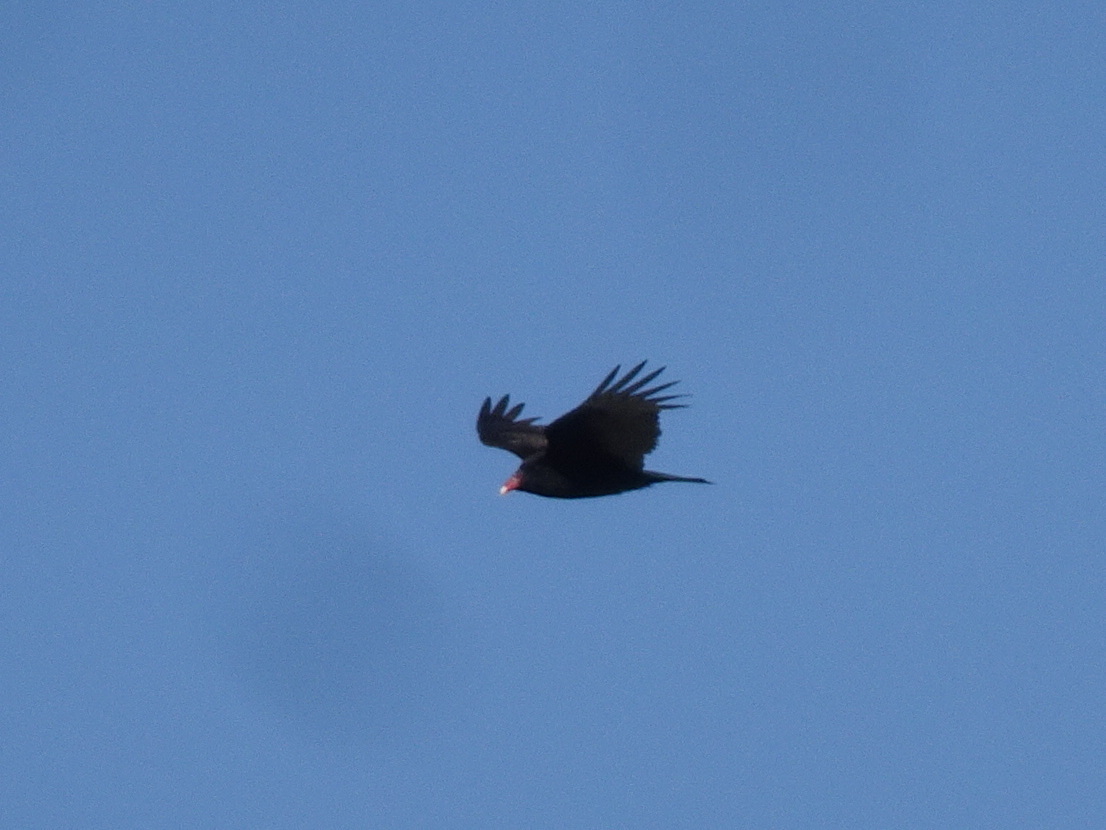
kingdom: Animalia
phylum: Chordata
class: Aves
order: Accipitriformes
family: Cathartidae
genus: Cathartes
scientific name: Cathartes aura
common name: Turkey vulture
